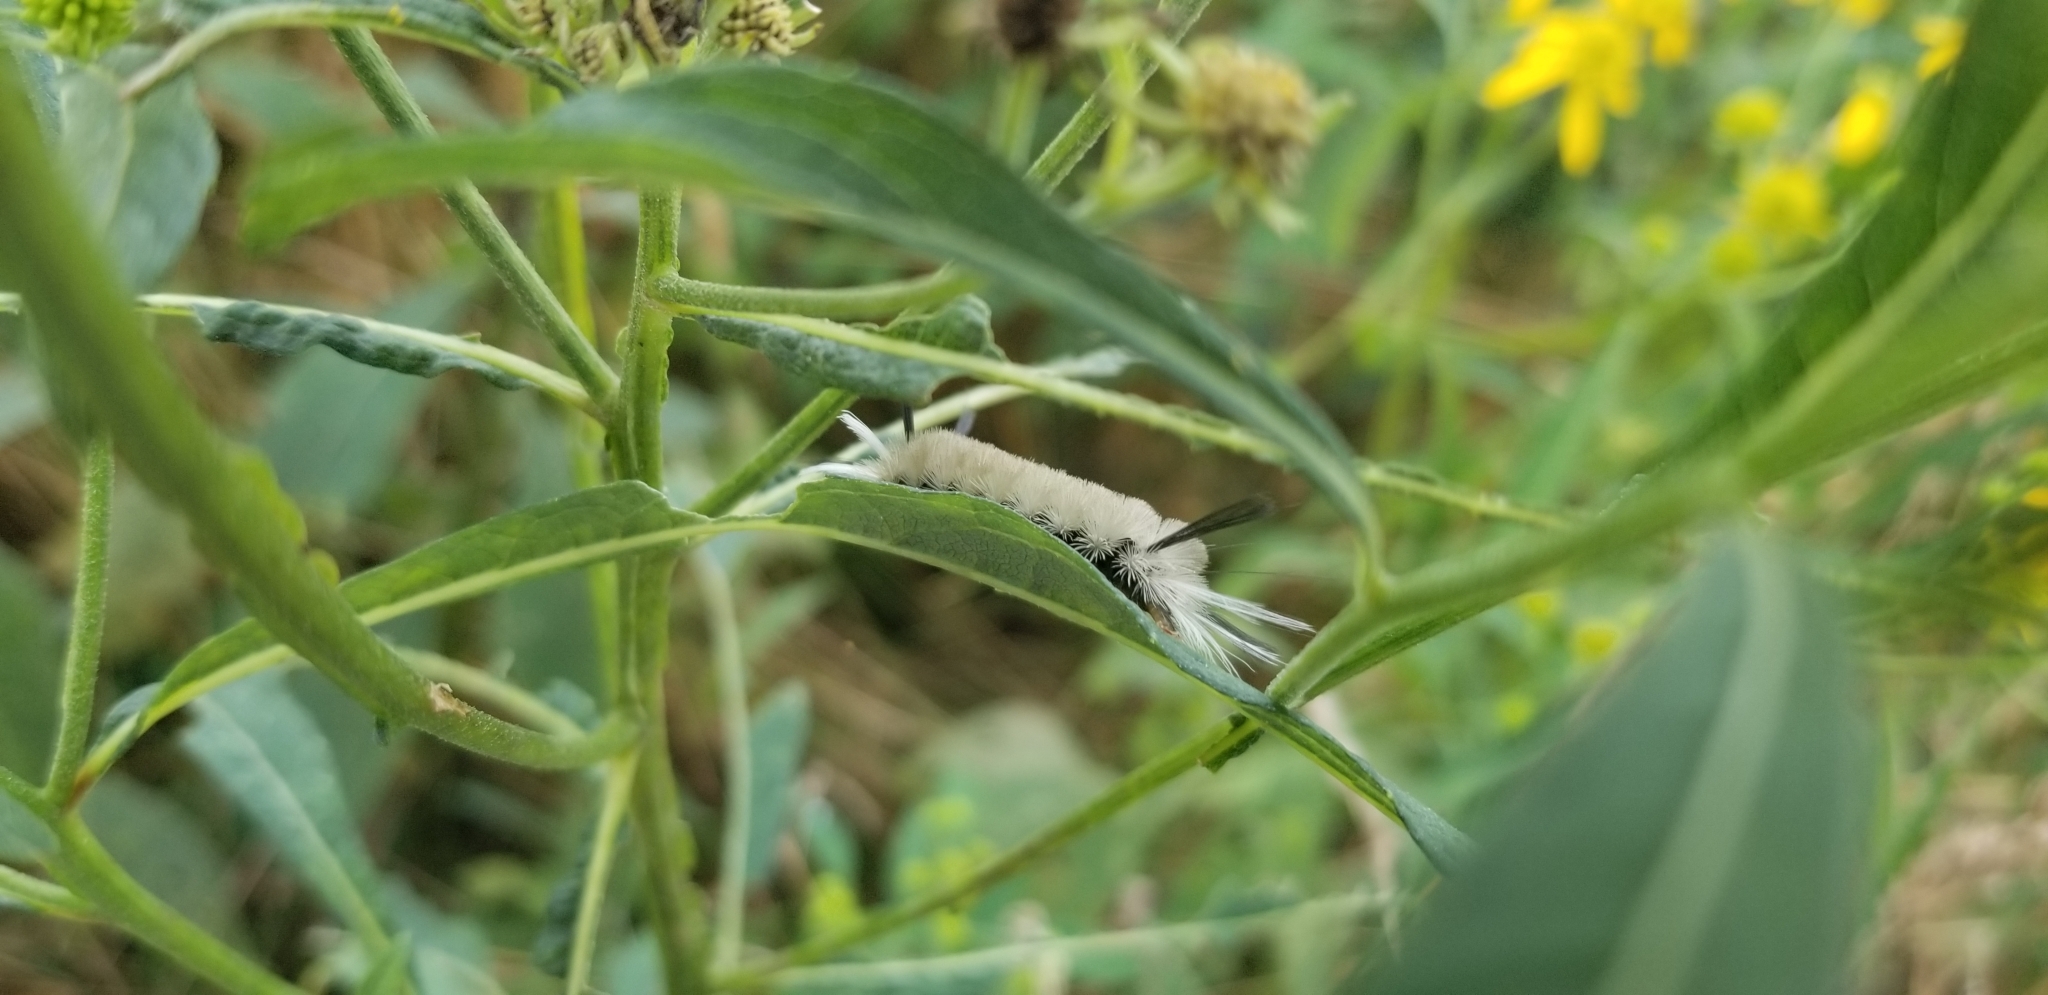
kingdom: Animalia
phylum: Arthropoda
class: Insecta
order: Lepidoptera
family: Erebidae
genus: Halysidota
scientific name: Halysidota tessellaris
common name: Banded tussock moth
